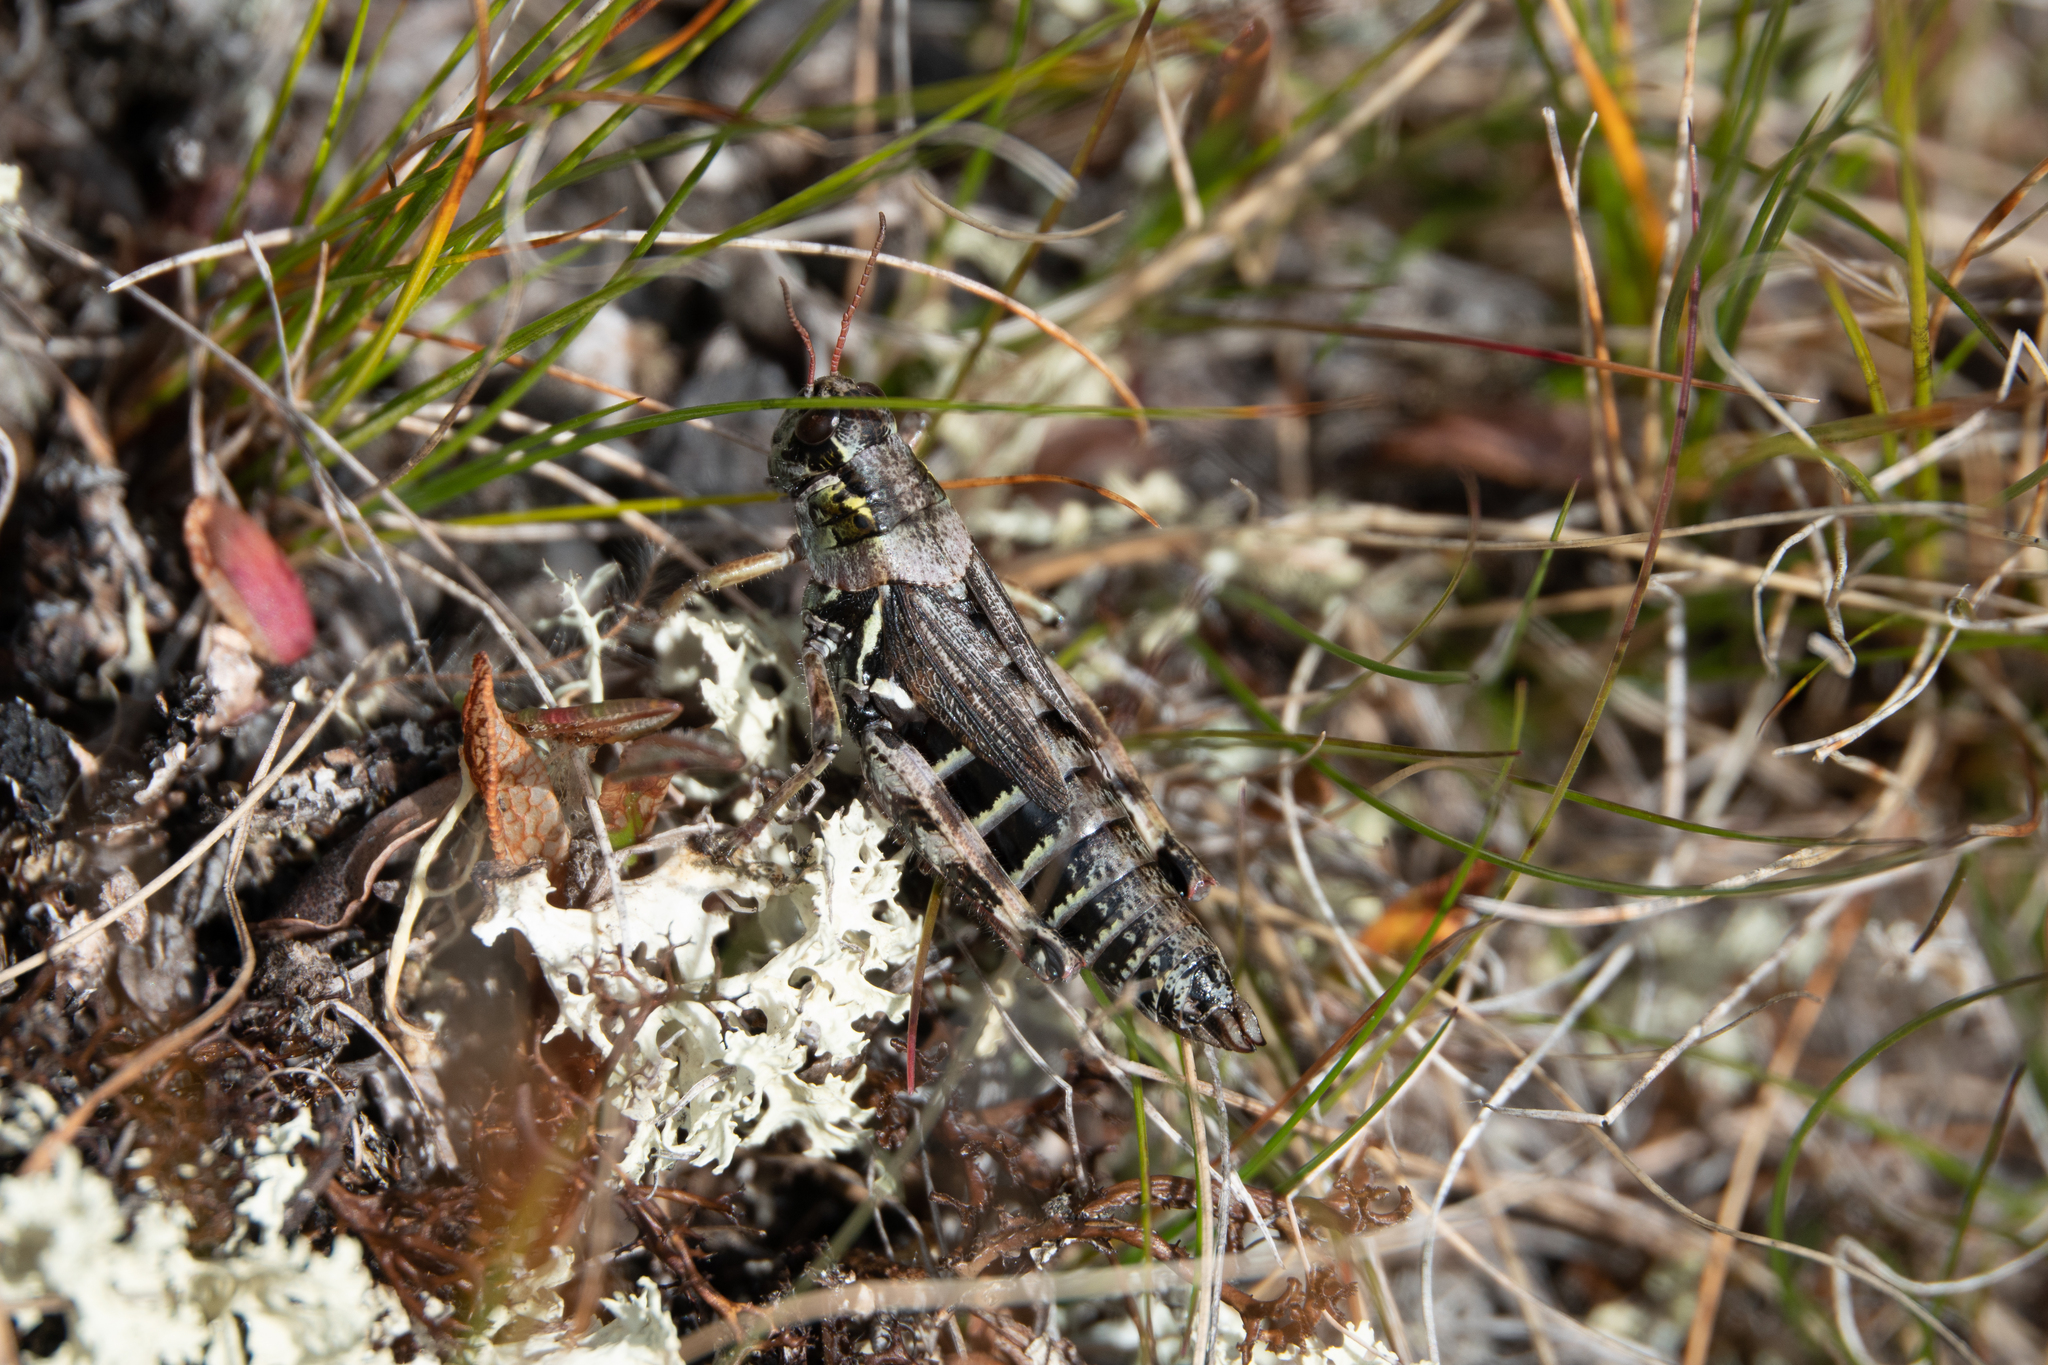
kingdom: Animalia
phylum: Arthropoda
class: Insecta
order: Orthoptera
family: Acrididae
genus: Bohemanella
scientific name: Bohemanella frigida
